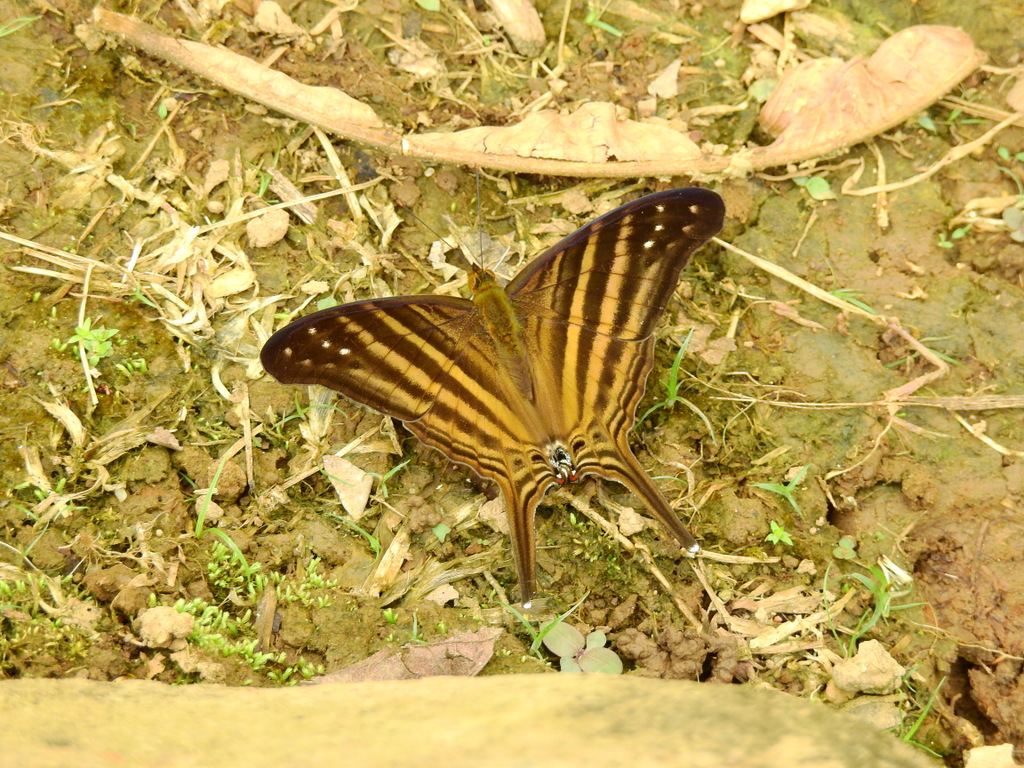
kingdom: Animalia
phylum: Arthropoda
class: Insecta
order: Lepidoptera
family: Nymphalidae
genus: Marpesia
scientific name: Marpesia chiron
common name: Many-banded daggerwing
